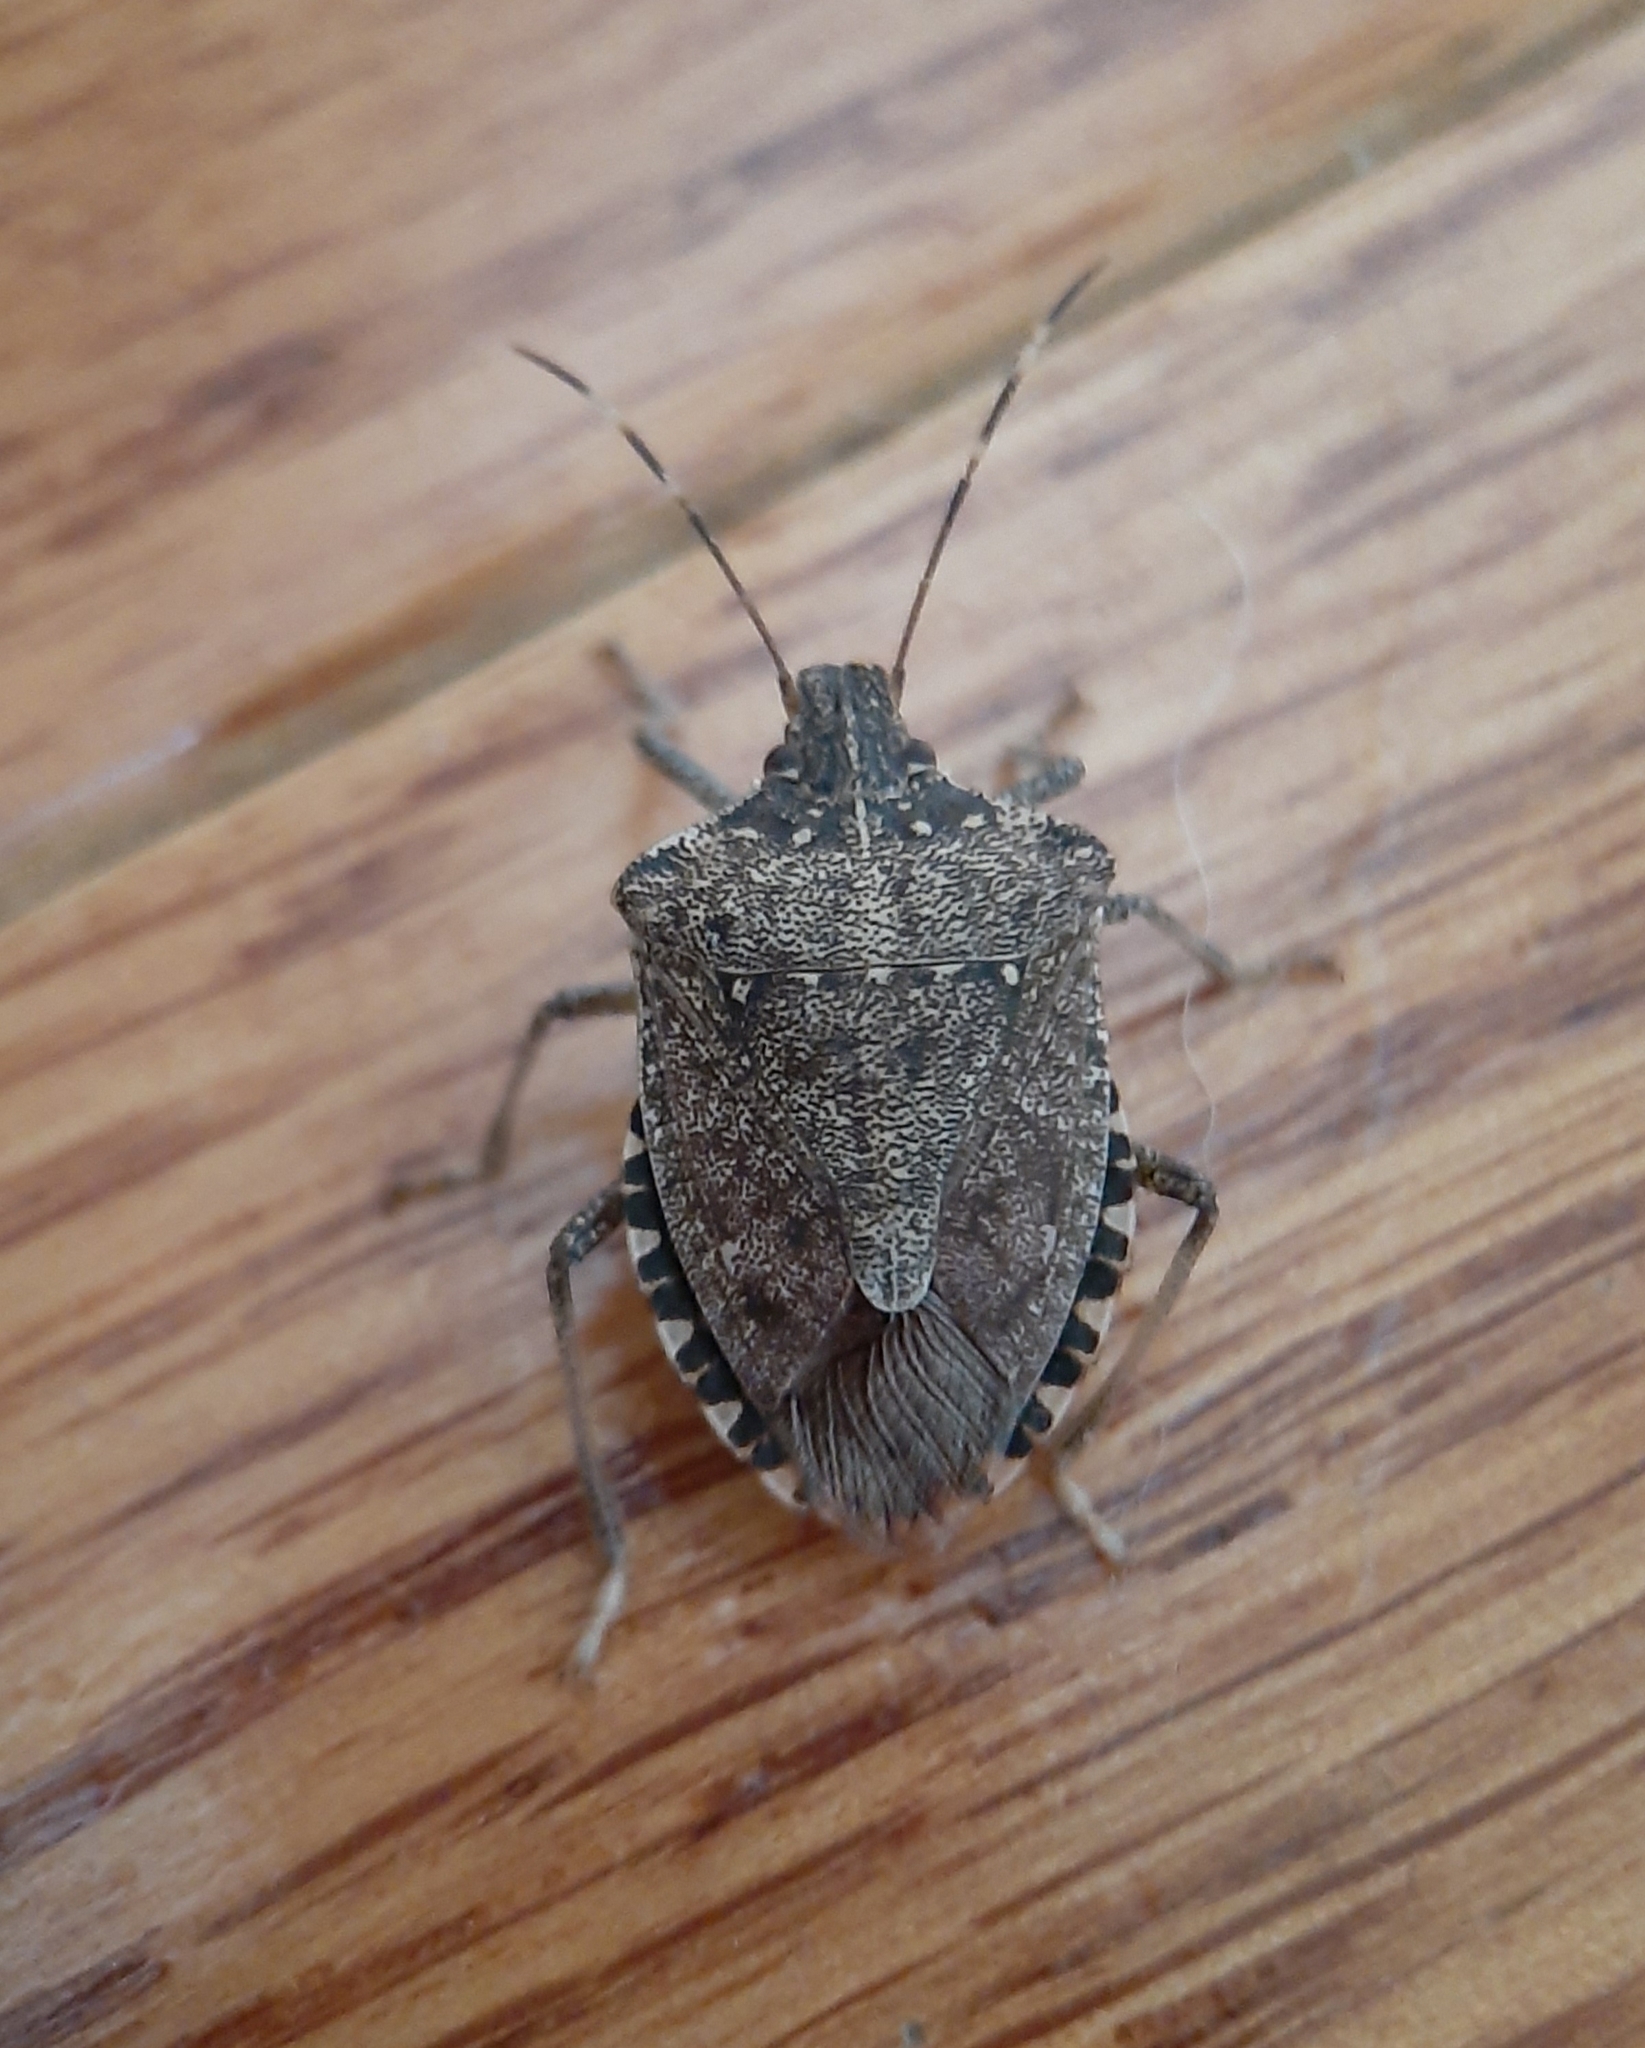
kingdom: Animalia
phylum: Arthropoda
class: Insecta
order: Hemiptera
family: Pentatomidae
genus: Halyomorpha
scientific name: Halyomorpha halys
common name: Brown marmorated stink bug
